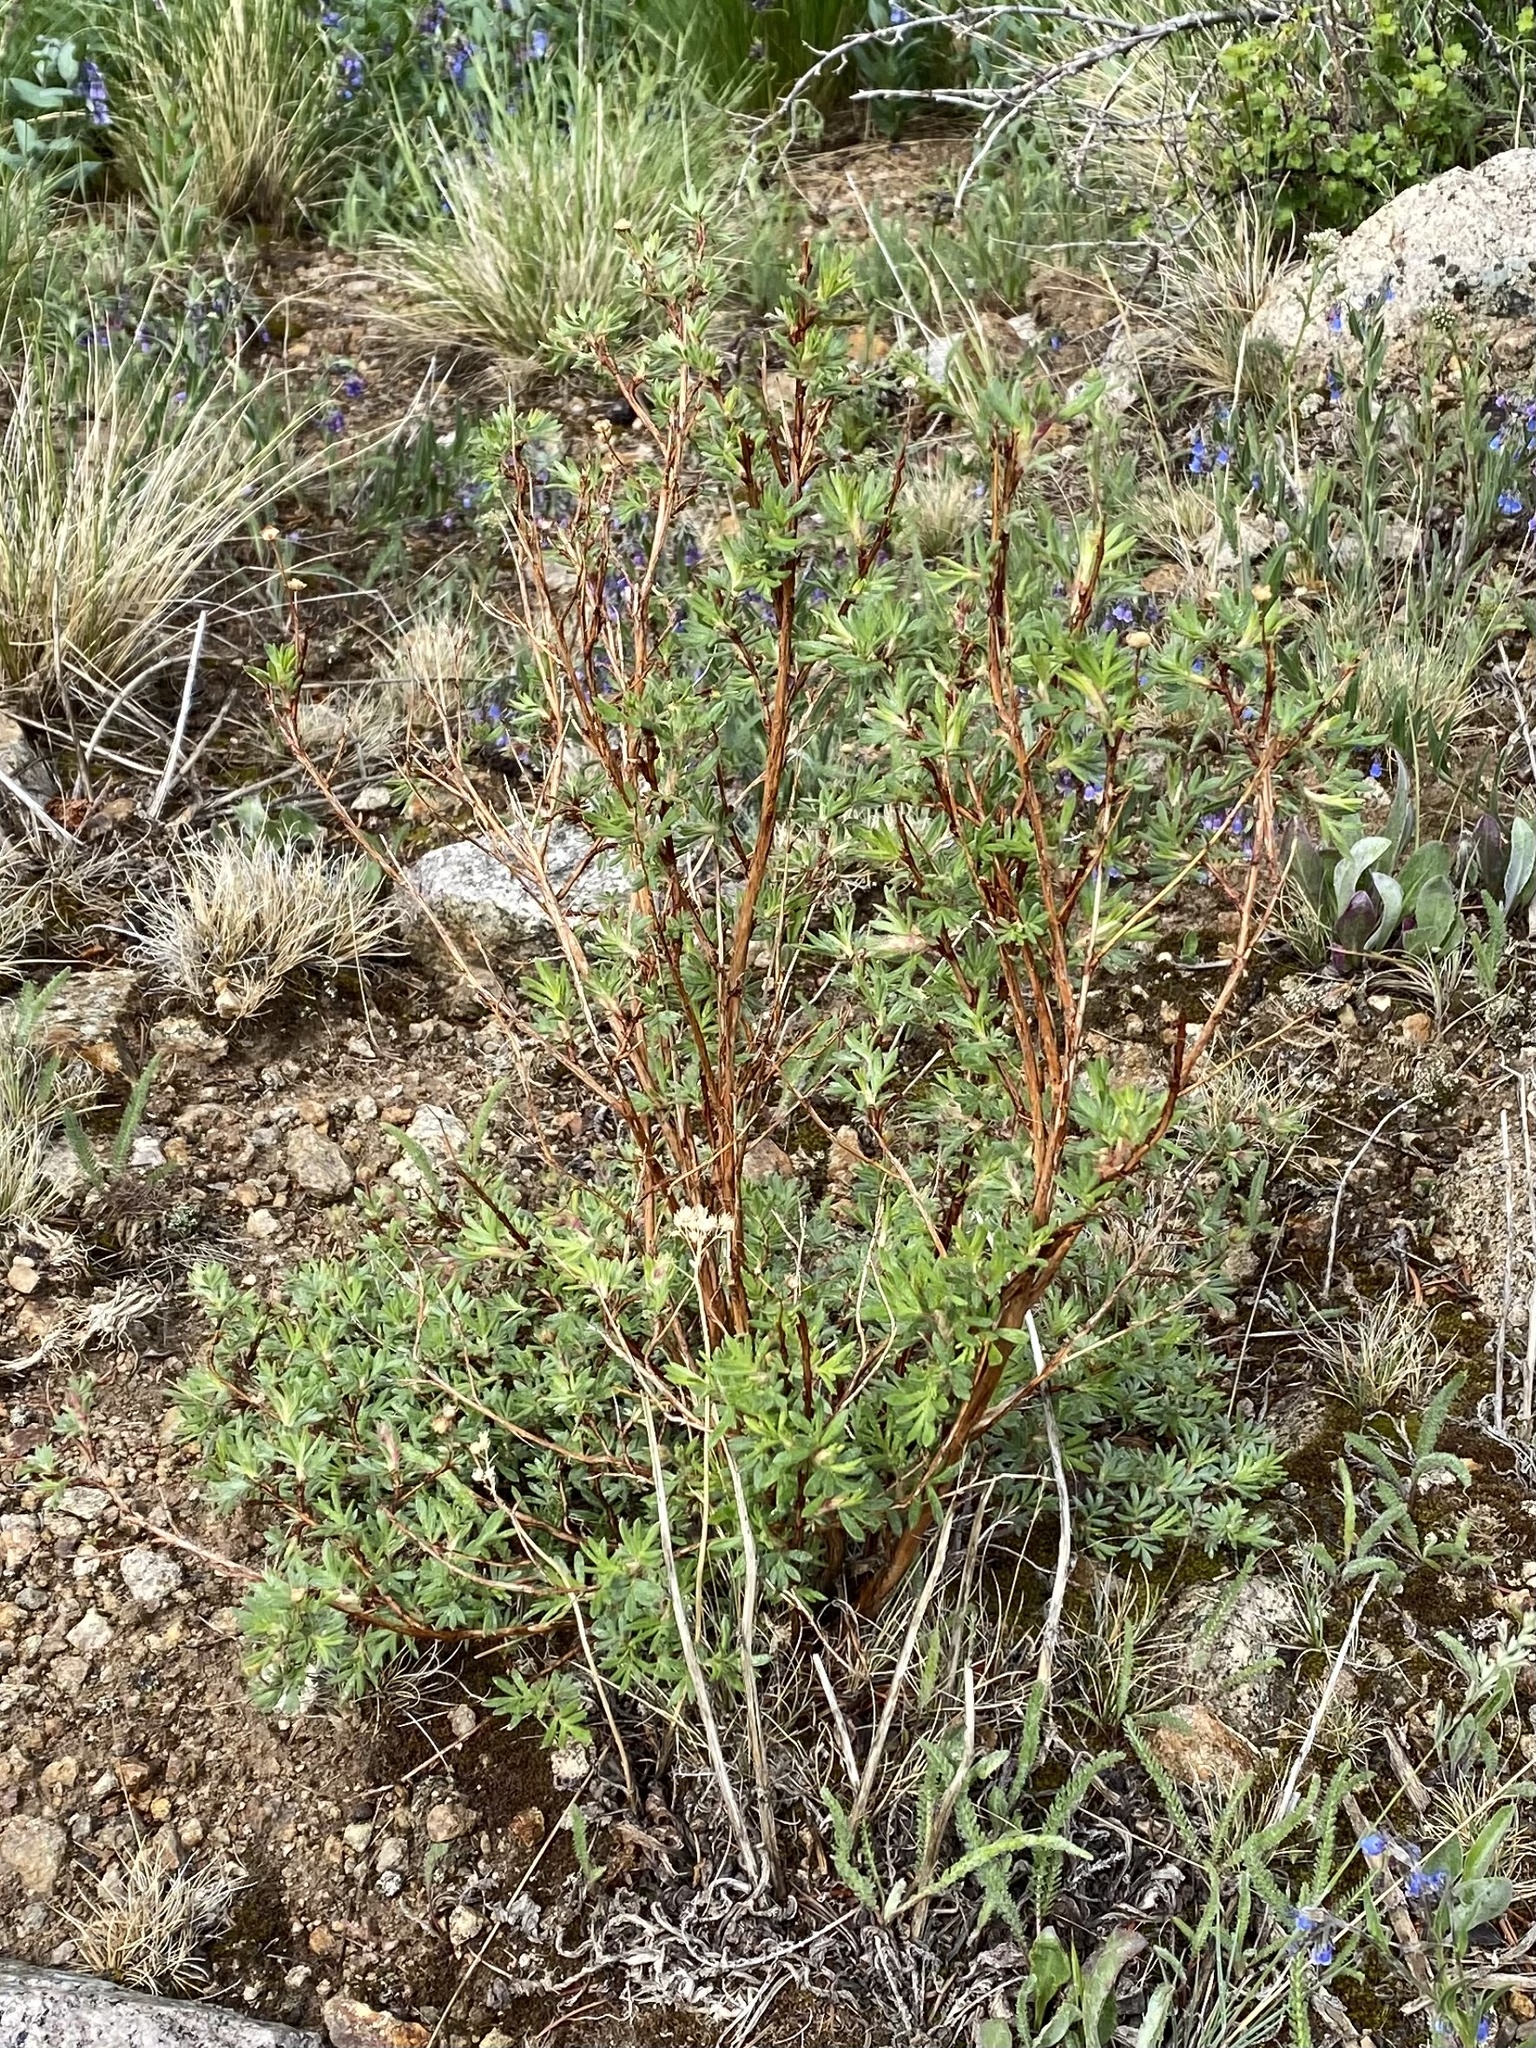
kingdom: Plantae
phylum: Tracheophyta
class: Magnoliopsida
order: Rosales
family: Rosaceae
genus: Dasiphora
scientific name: Dasiphora fruticosa
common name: Shrubby cinquefoil
